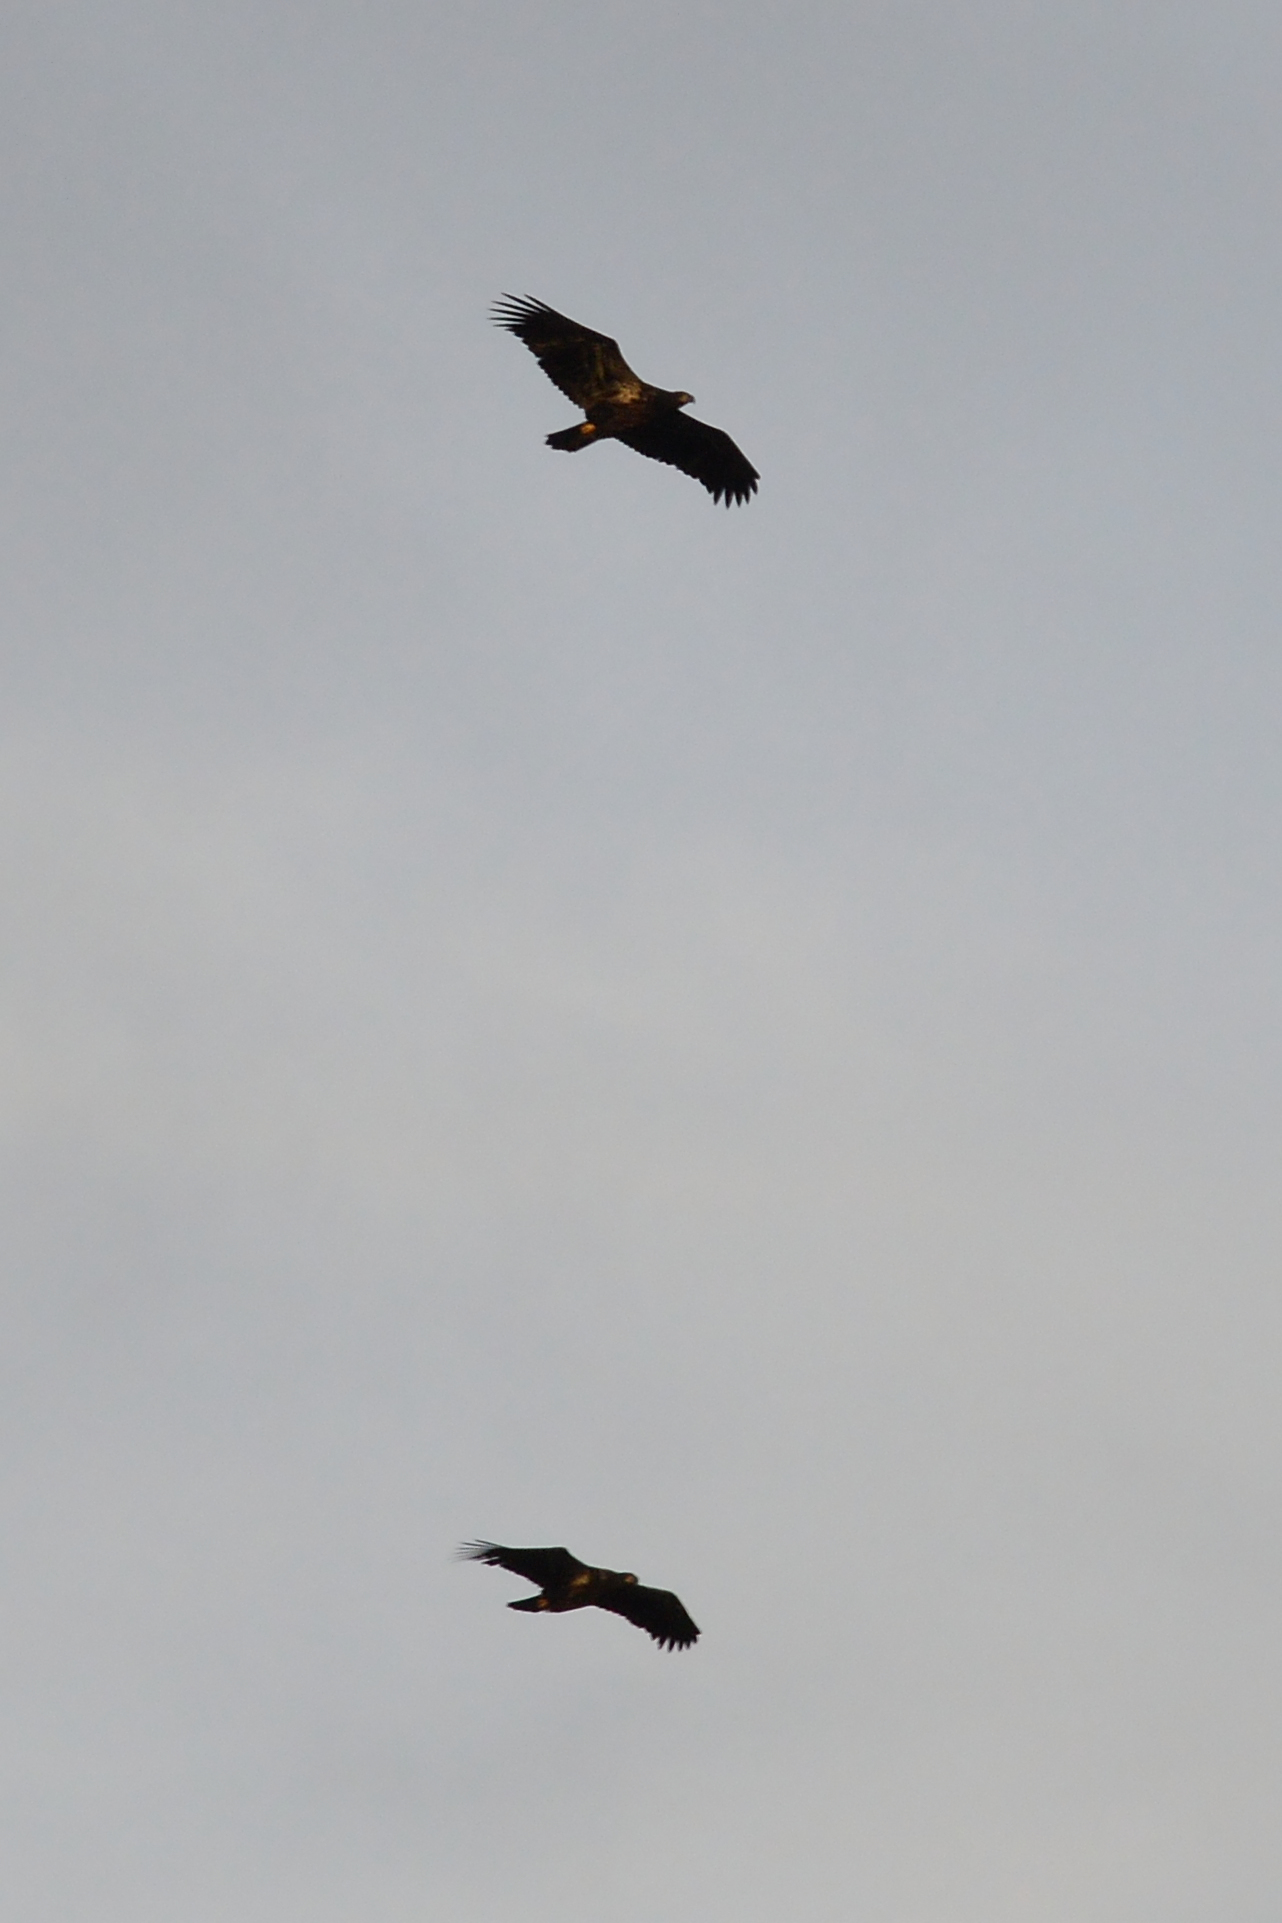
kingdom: Animalia
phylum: Chordata
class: Aves
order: Accipitriformes
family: Accipitridae
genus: Haliaeetus
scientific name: Haliaeetus leucocephalus
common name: Bald eagle
